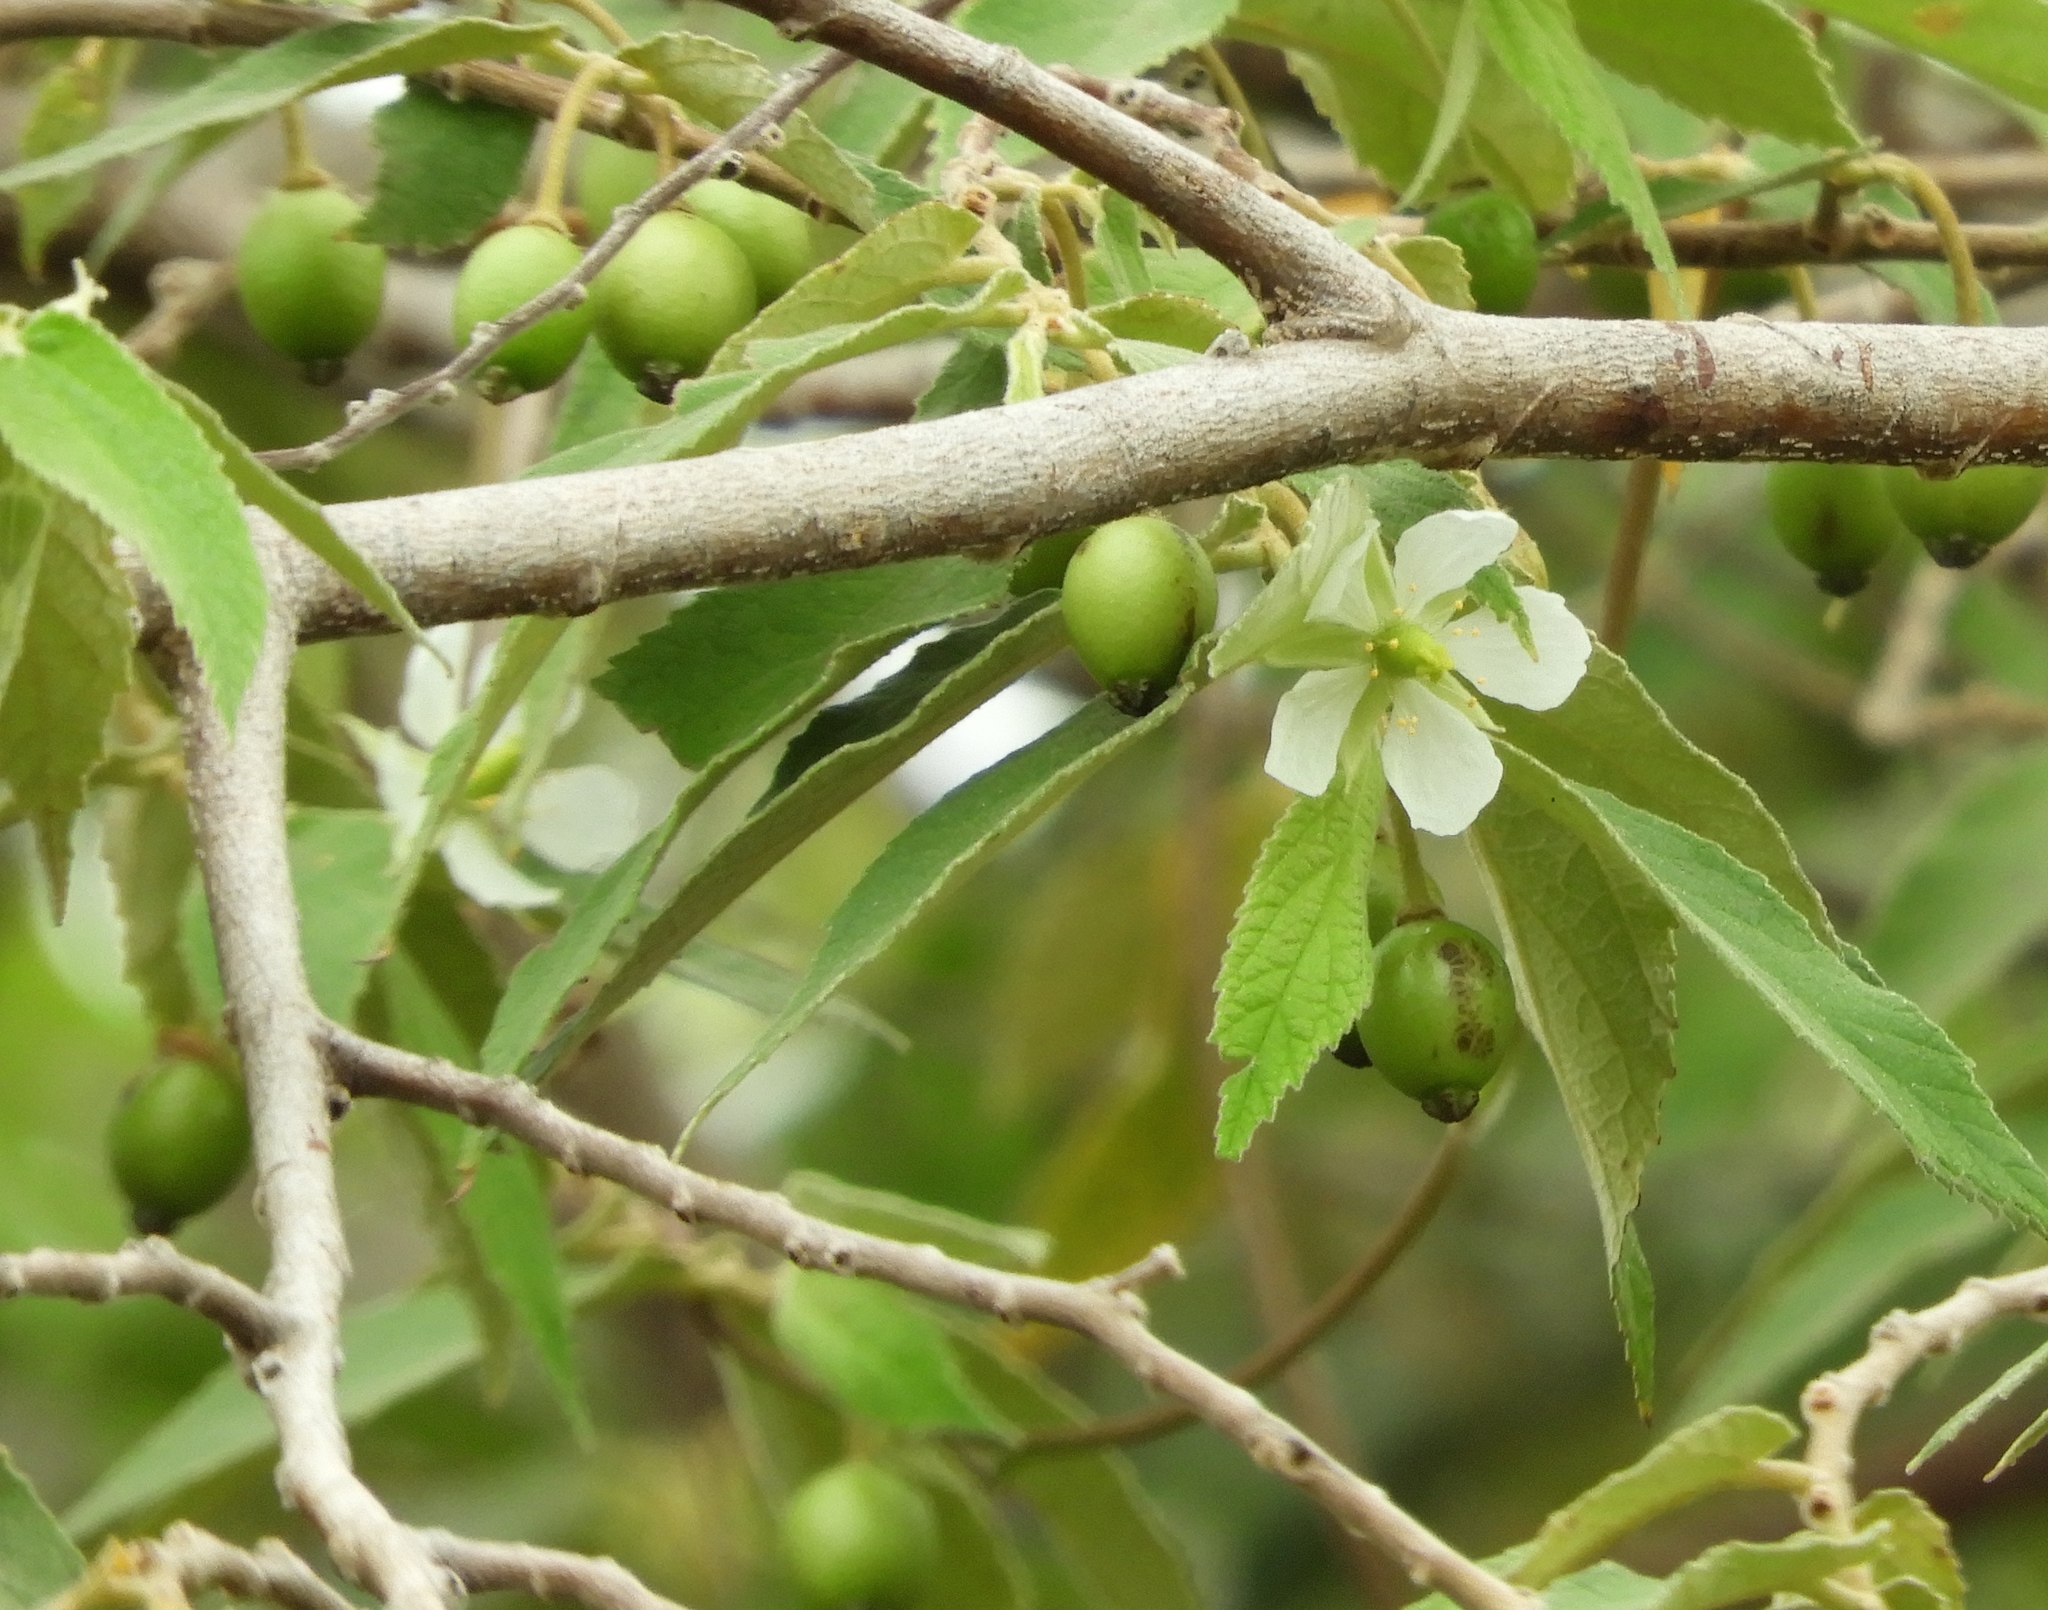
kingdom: Plantae
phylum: Tracheophyta
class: Magnoliopsida
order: Malvales
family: Muntingiaceae
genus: Muntingia
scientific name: Muntingia calabura
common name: Strawberrytree
